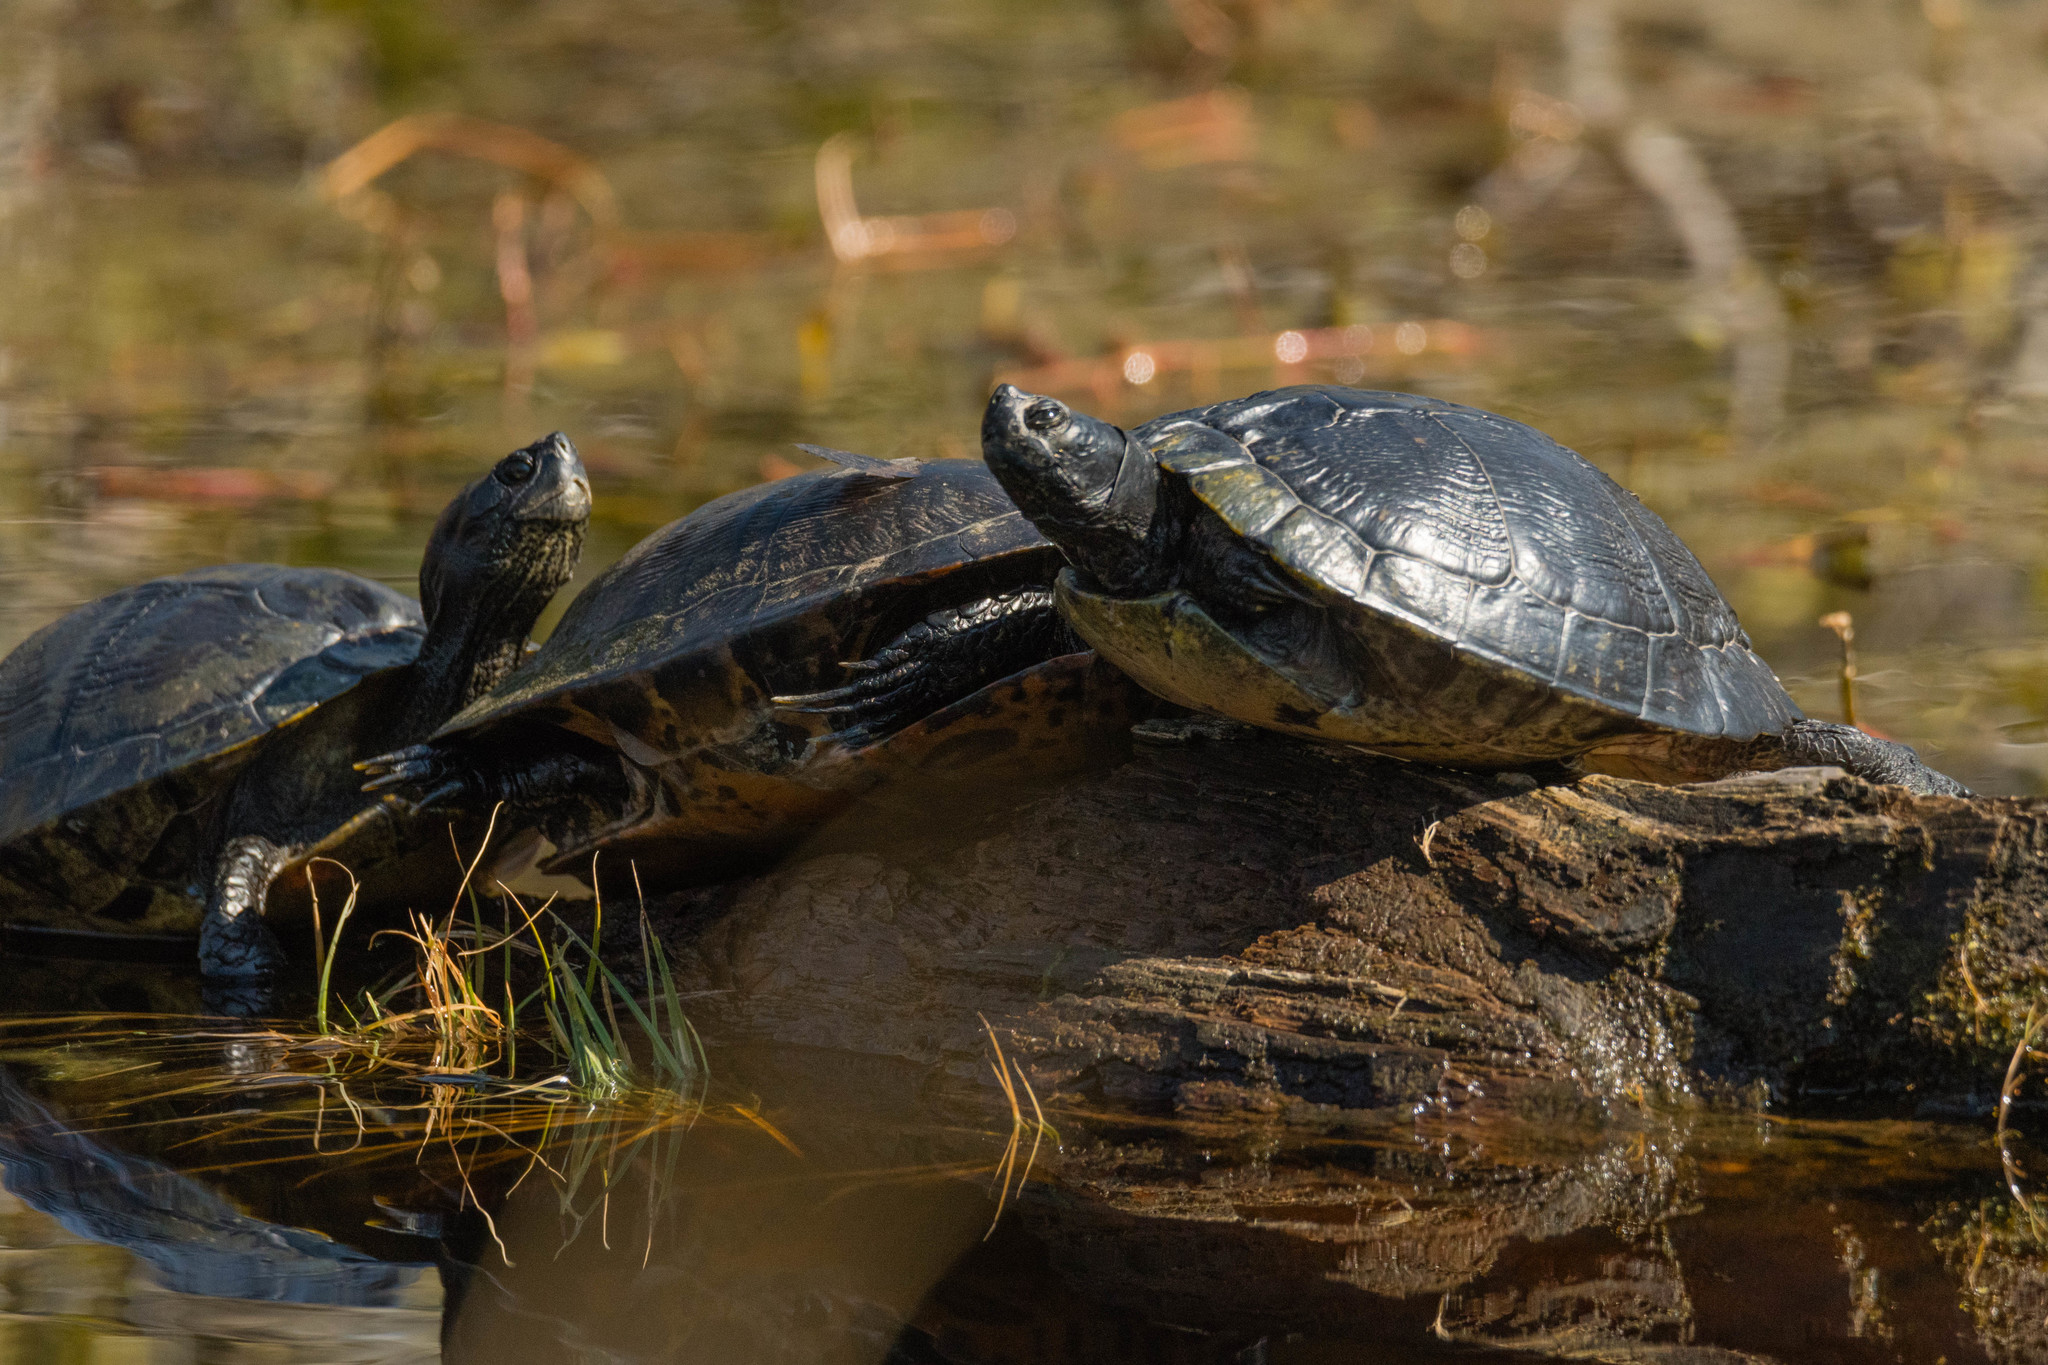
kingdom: Animalia
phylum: Chordata
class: Testudines
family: Emydidae
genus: Trachemys
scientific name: Trachemys scripta
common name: Slider
